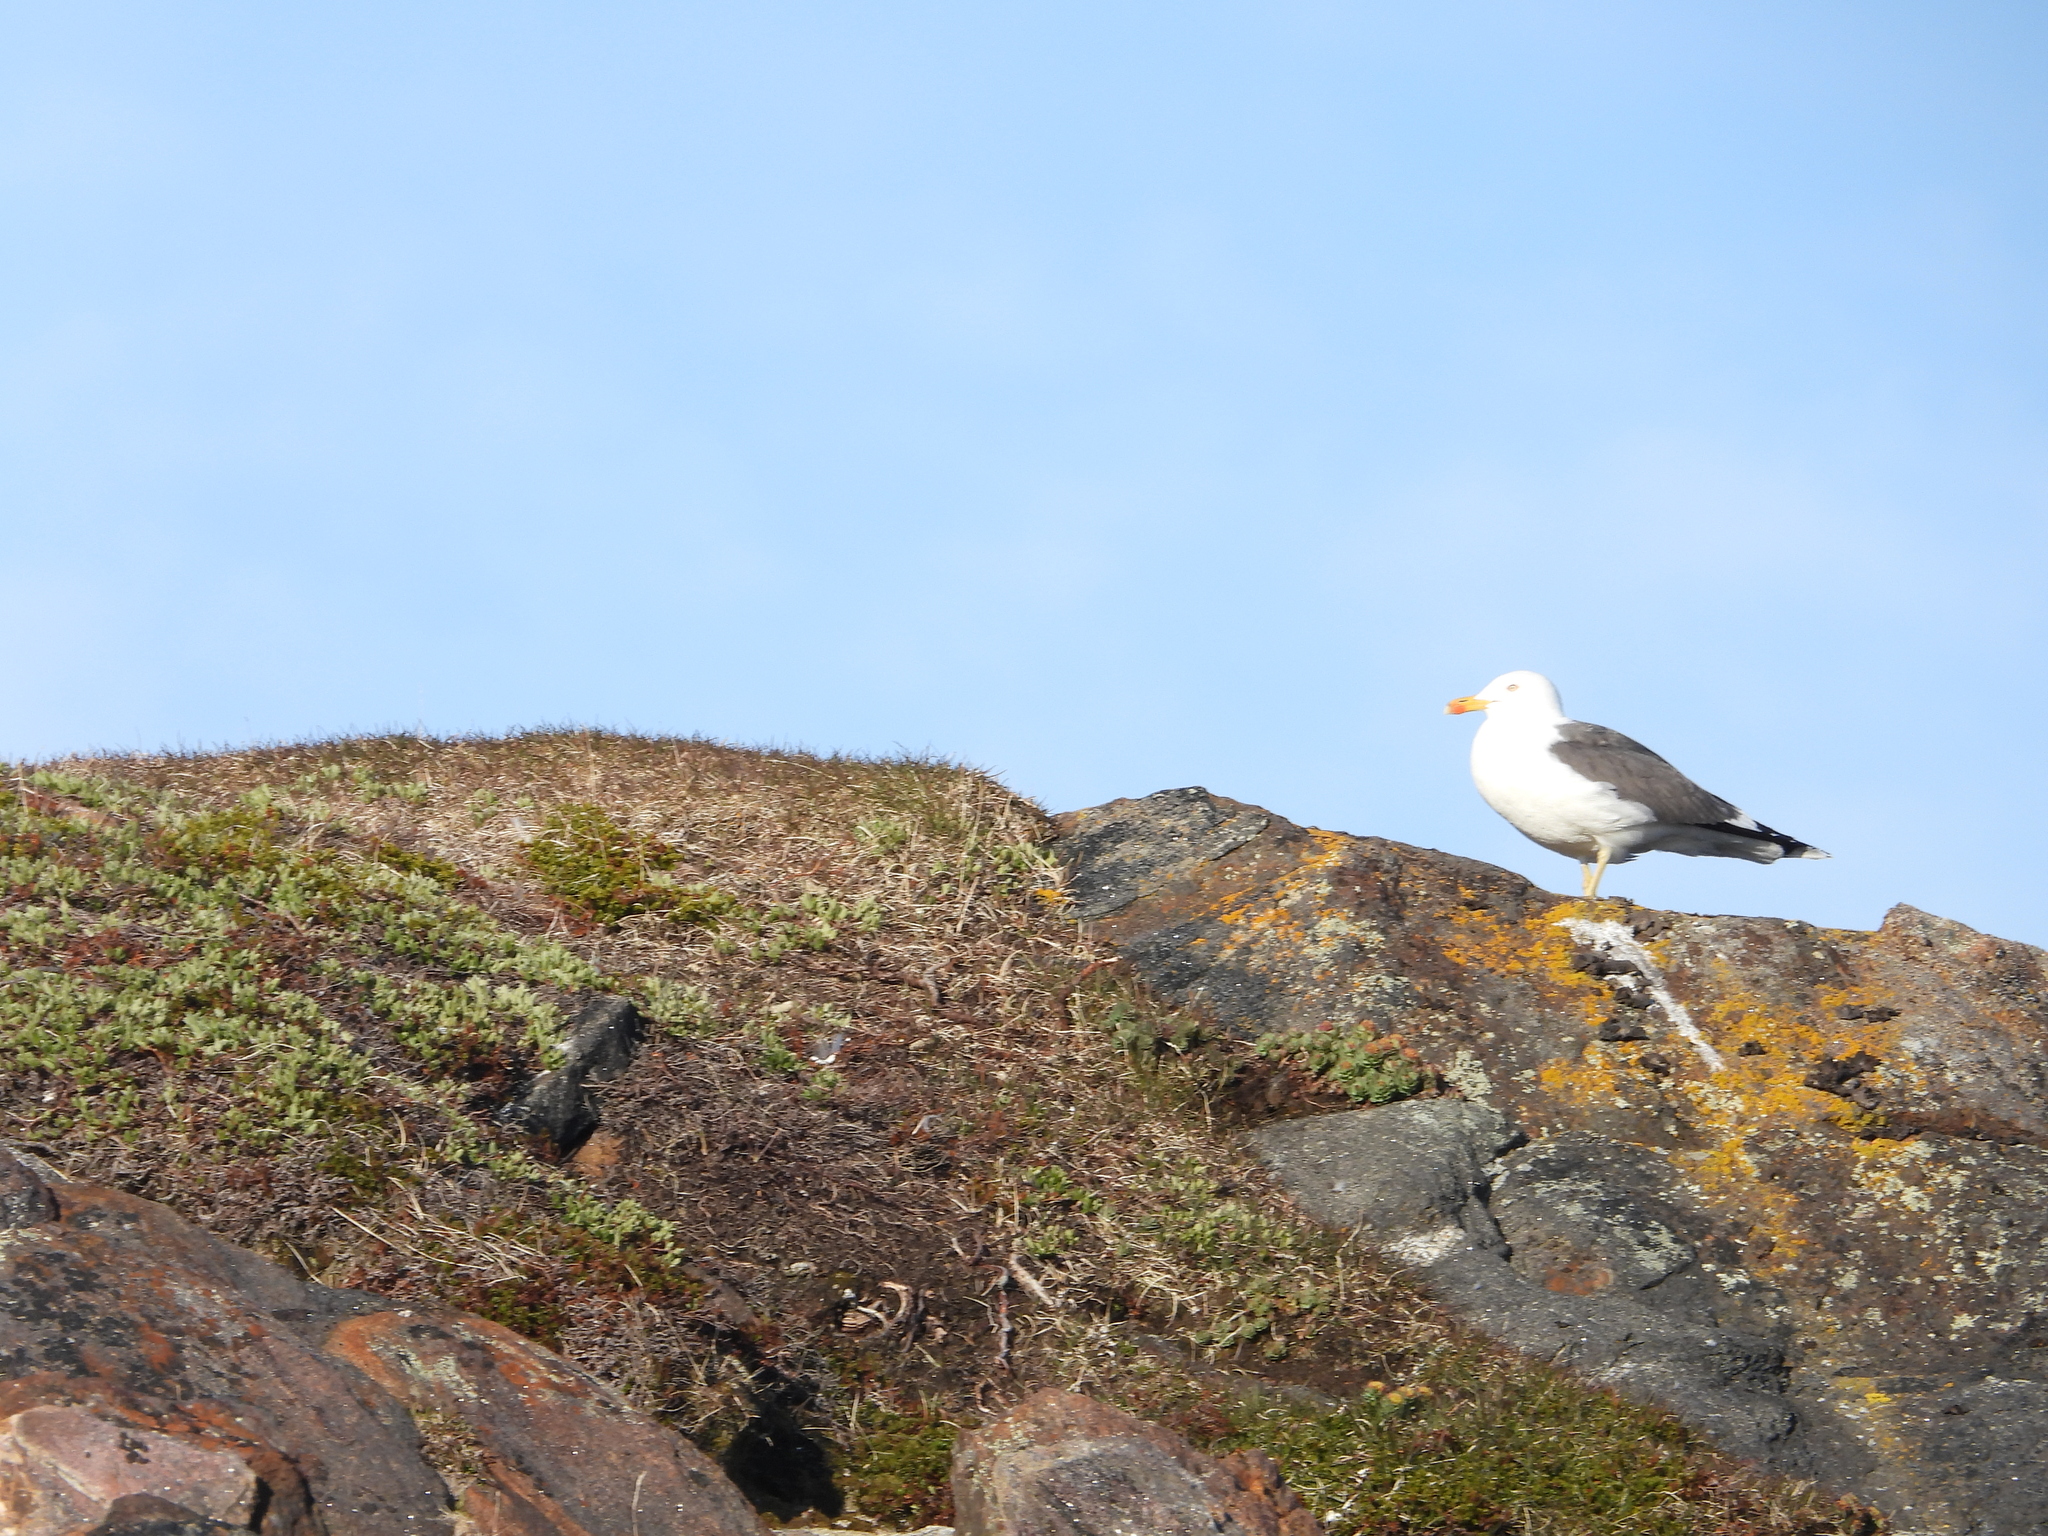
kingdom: Animalia
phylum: Chordata
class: Aves
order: Charadriiformes
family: Laridae
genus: Larus
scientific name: Larus fuscus
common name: Lesser black-backed gull
